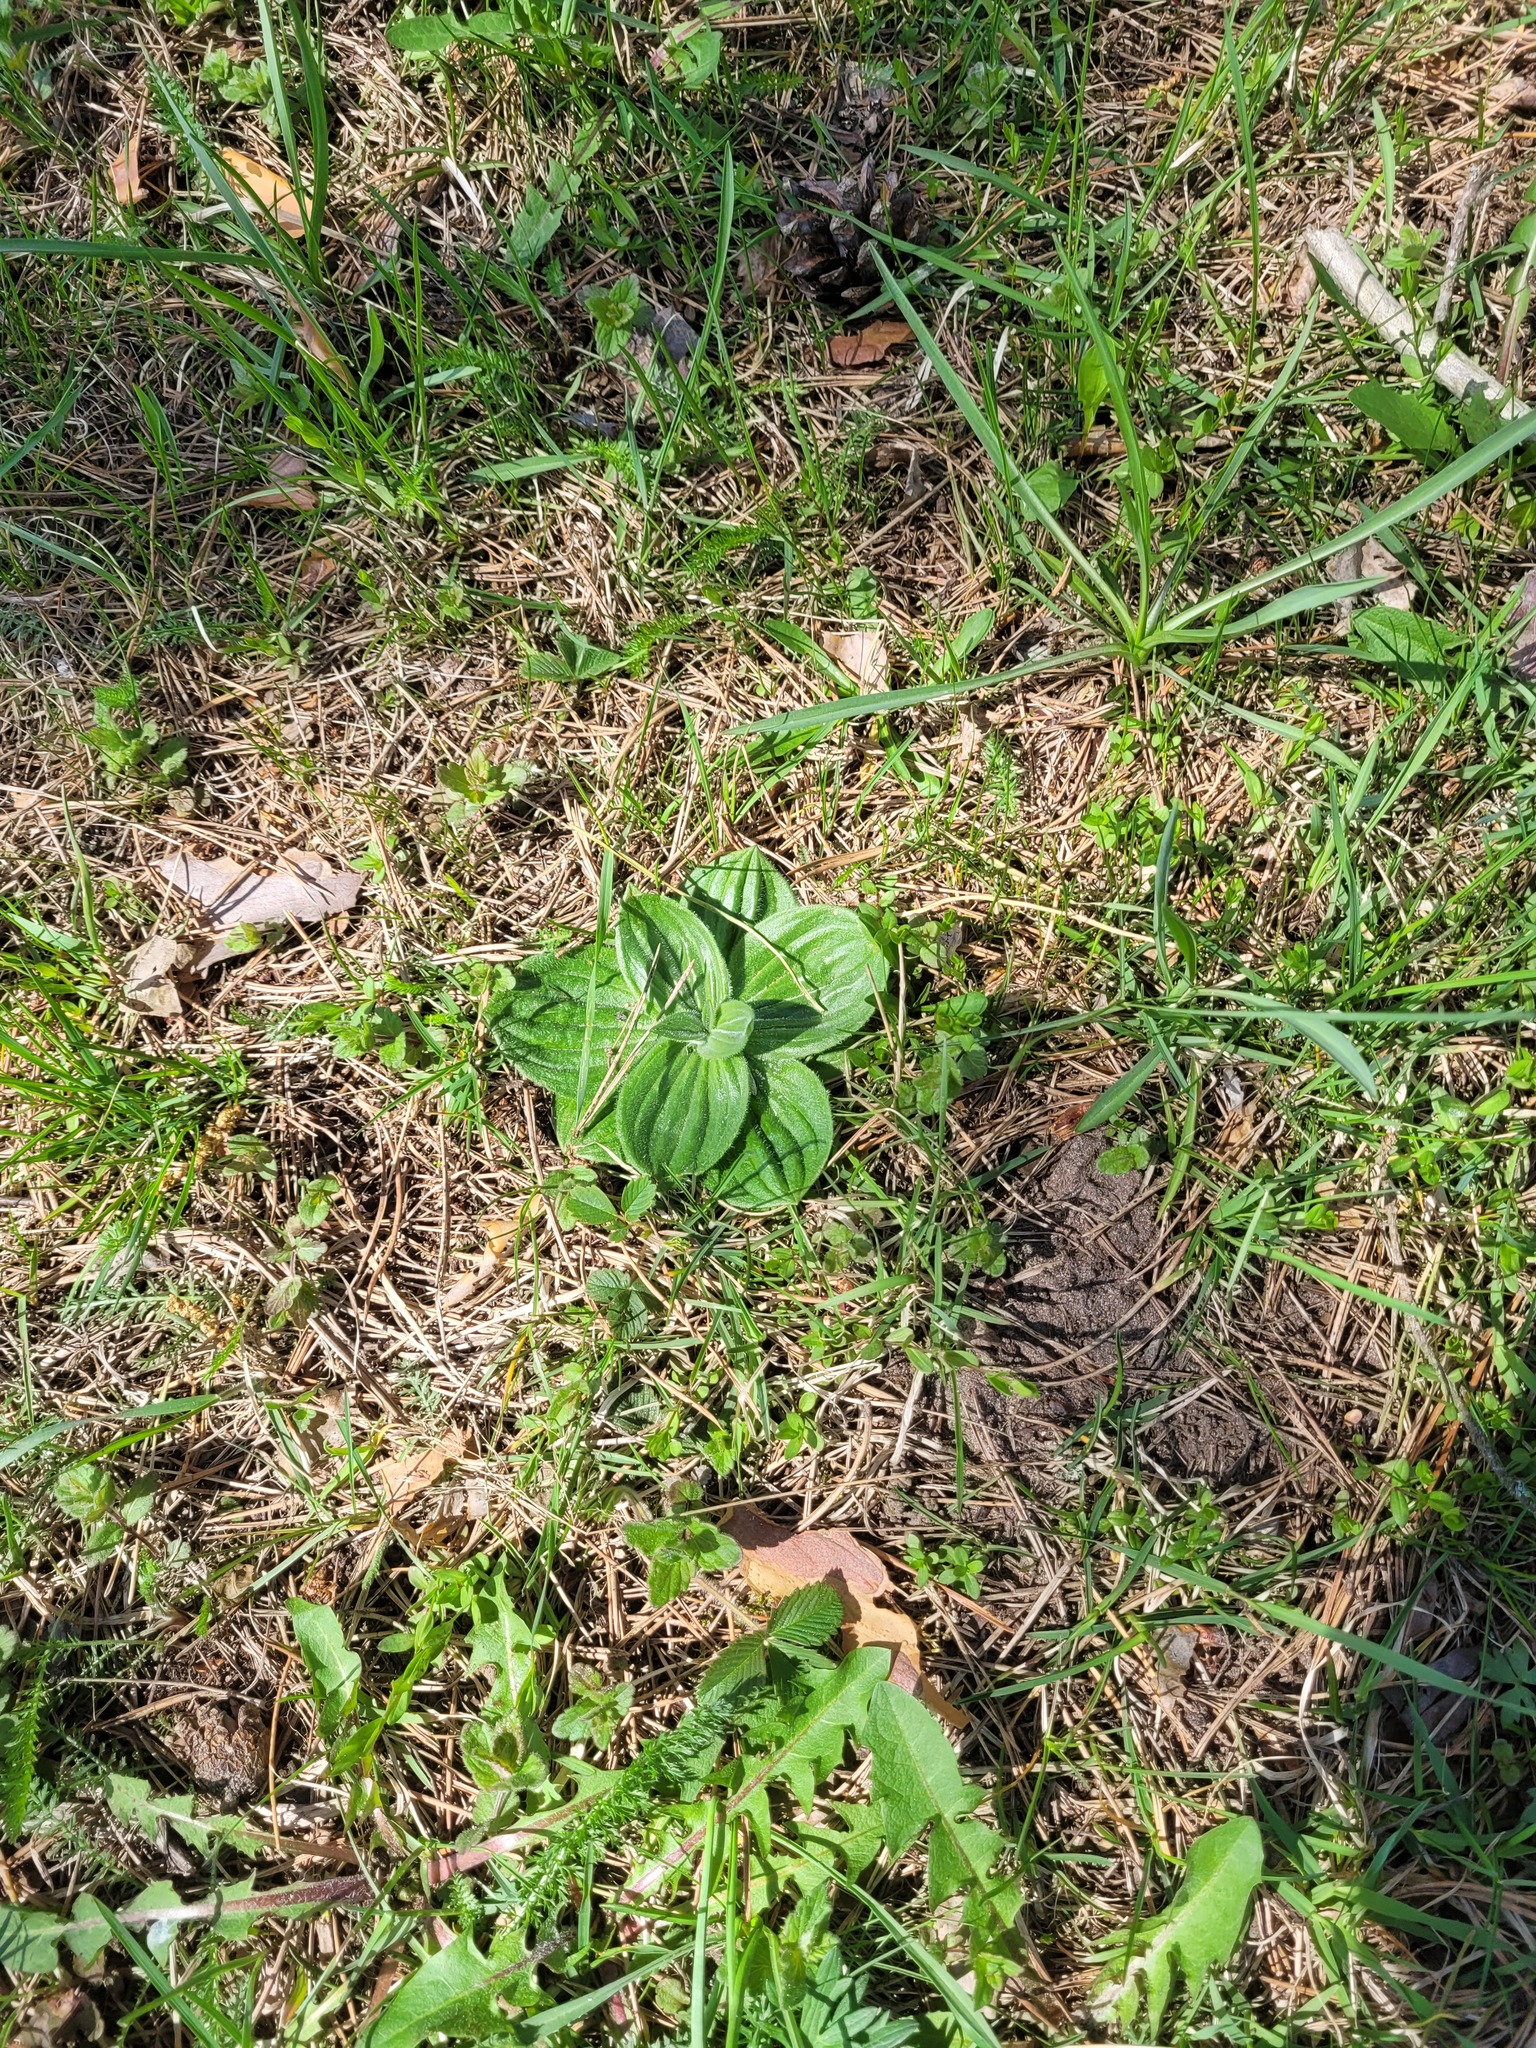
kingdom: Plantae
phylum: Tracheophyta
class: Magnoliopsida
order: Lamiales
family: Plantaginaceae
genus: Plantago
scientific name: Plantago media
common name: Hoary plantain
